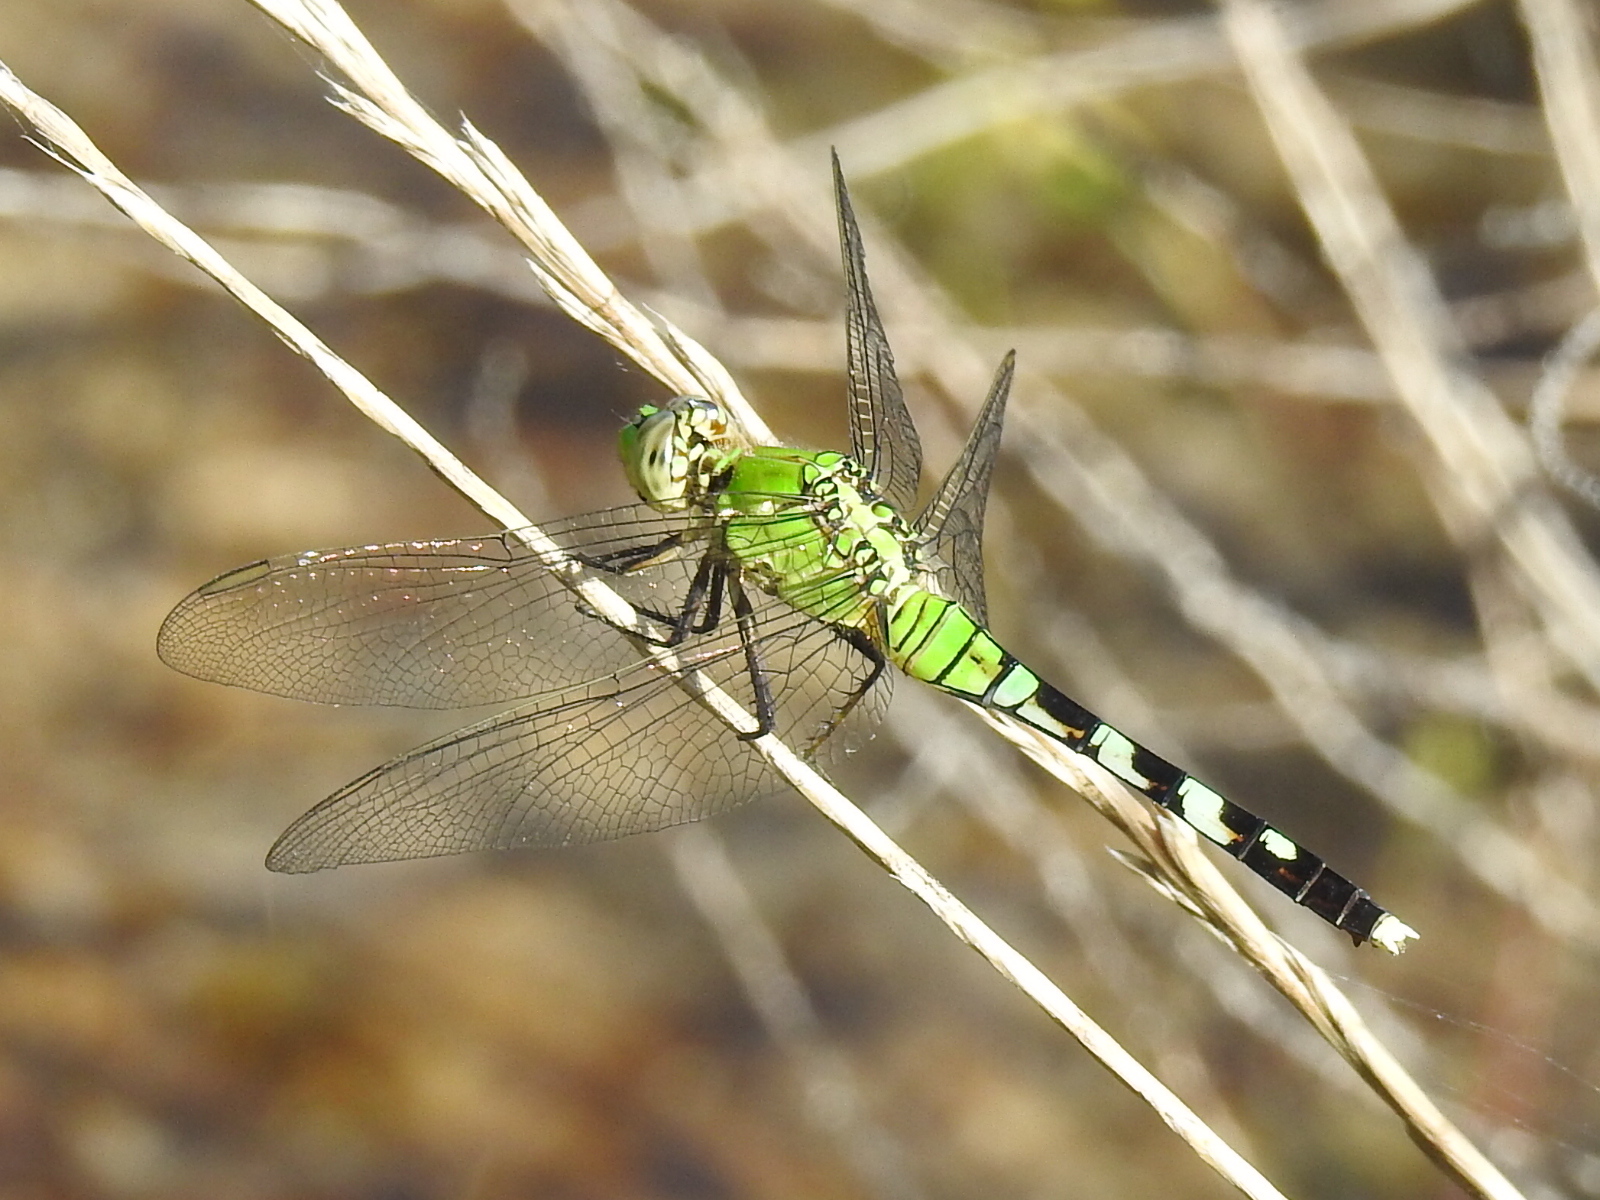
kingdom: Animalia
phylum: Arthropoda
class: Insecta
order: Odonata
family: Libellulidae
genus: Erythemis
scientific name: Erythemis simplicicollis
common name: Eastern pondhawk
